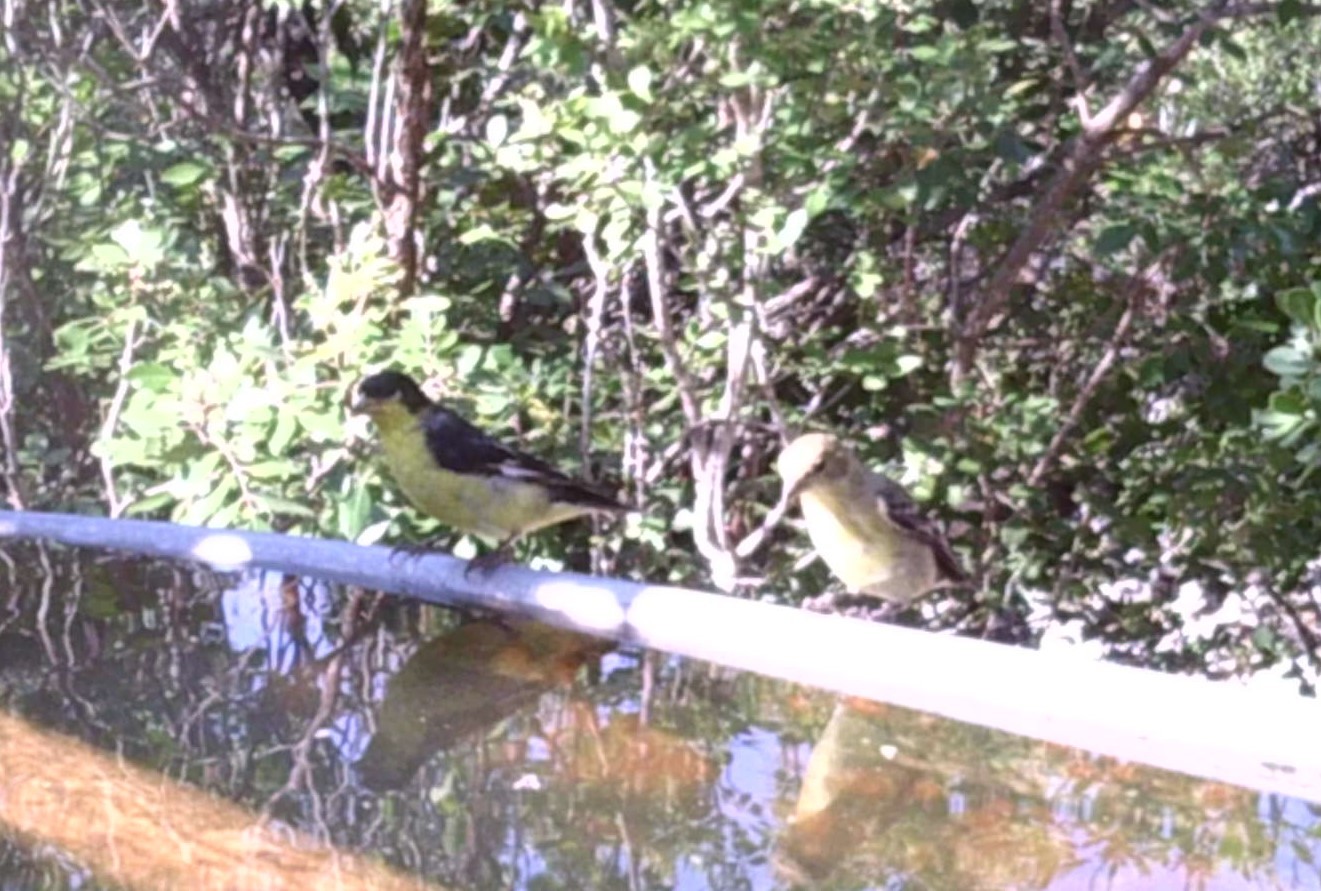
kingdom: Animalia
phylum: Chordata
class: Aves
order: Passeriformes
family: Fringillidae
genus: Spinus
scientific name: Spinus psaltria
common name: Lesser goldfinch
